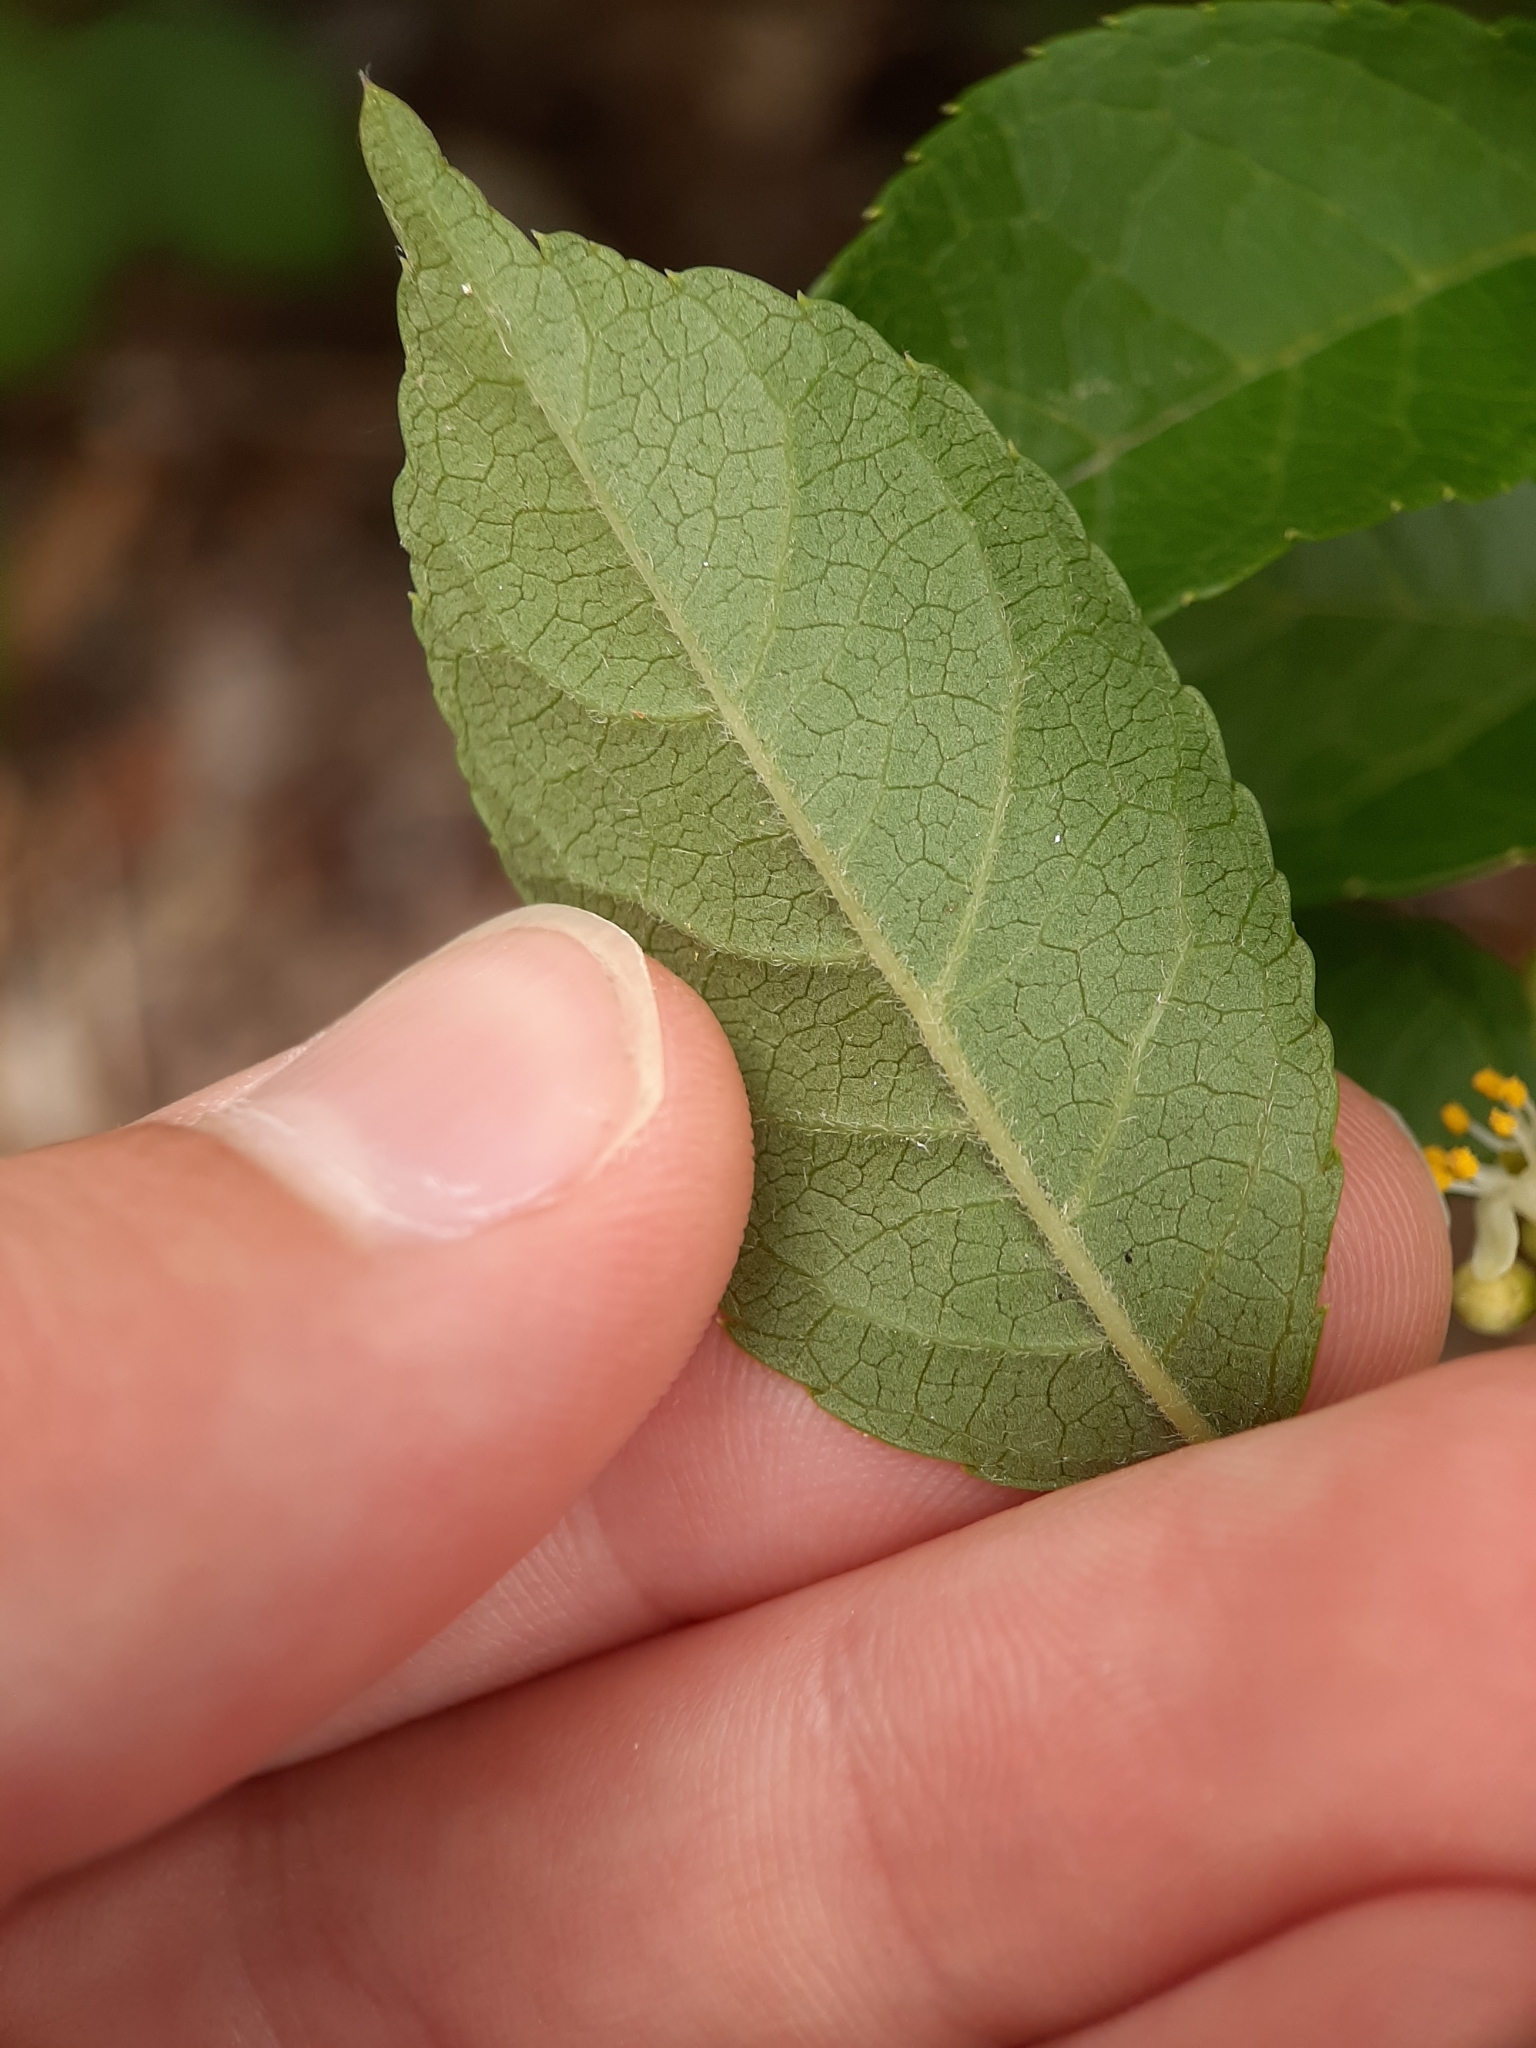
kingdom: Plantae
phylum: Tracheophyta
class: Magnoliopsida
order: Aquifoliales
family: Aquifoliaceae
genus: Ilex
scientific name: Ilex verticillata
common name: Virginia winterberry
